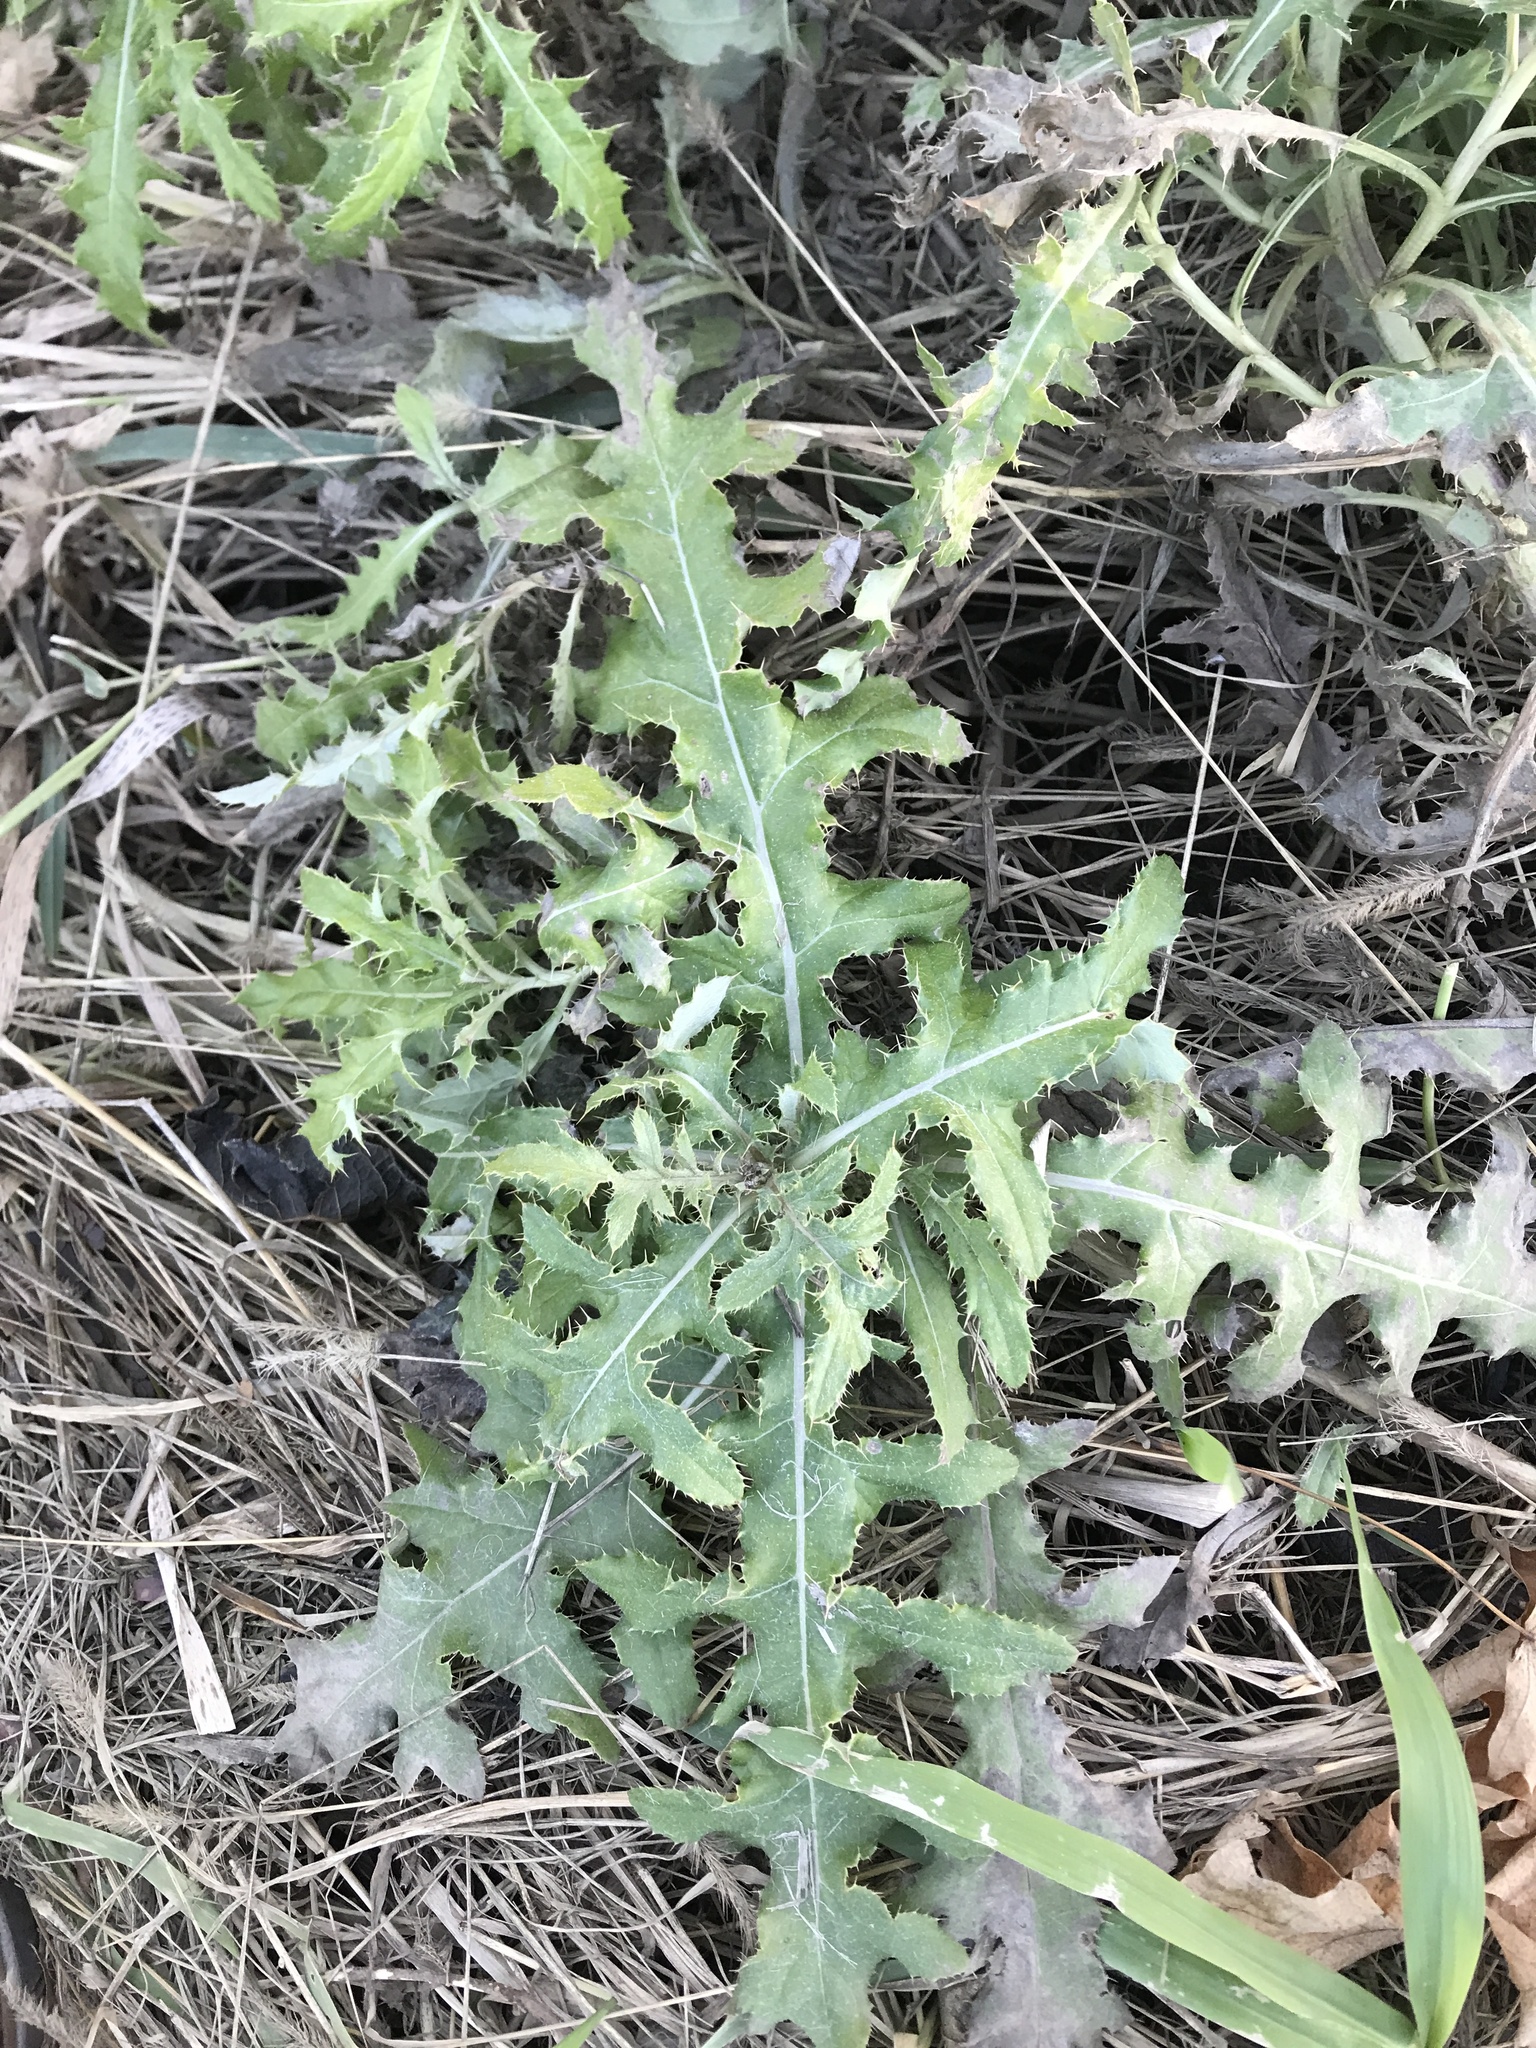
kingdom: Plantae
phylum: Tracheophyta
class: Magnoliopsida
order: Asterales
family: Asteraceae
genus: Cirsium
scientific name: Cirsium arvense
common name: Creeping thistle
